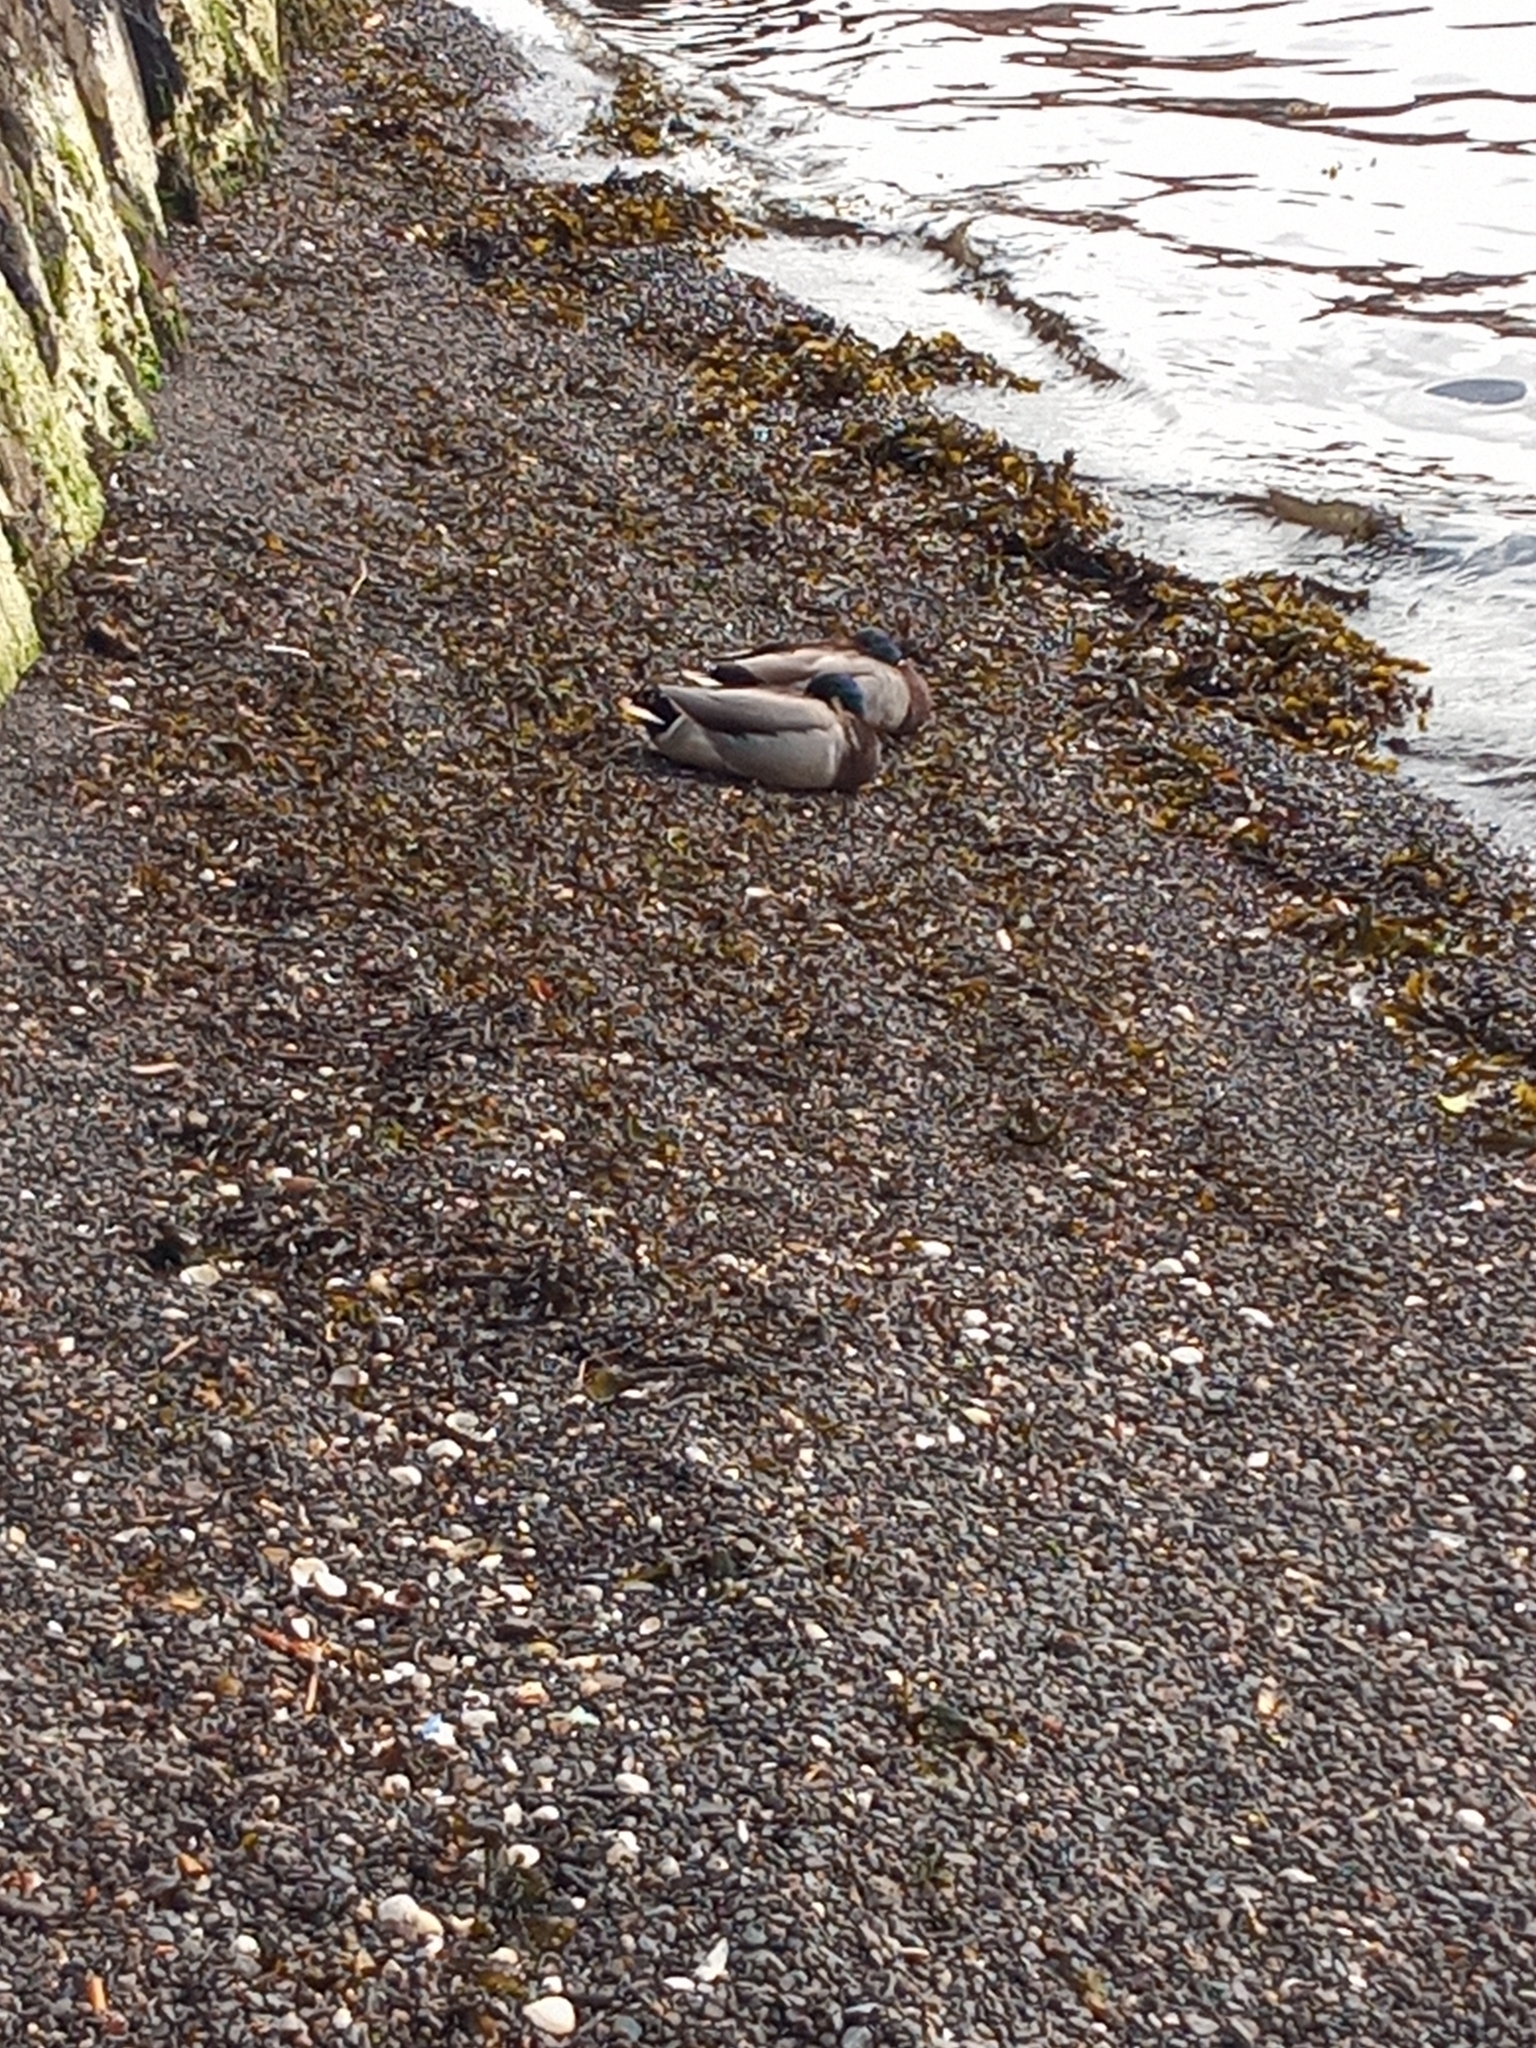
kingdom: Animalia
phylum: Chordata
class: Aves
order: Anseriformes
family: Anatidae
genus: Anas
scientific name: Anas platyrhynchos
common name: Mallard
